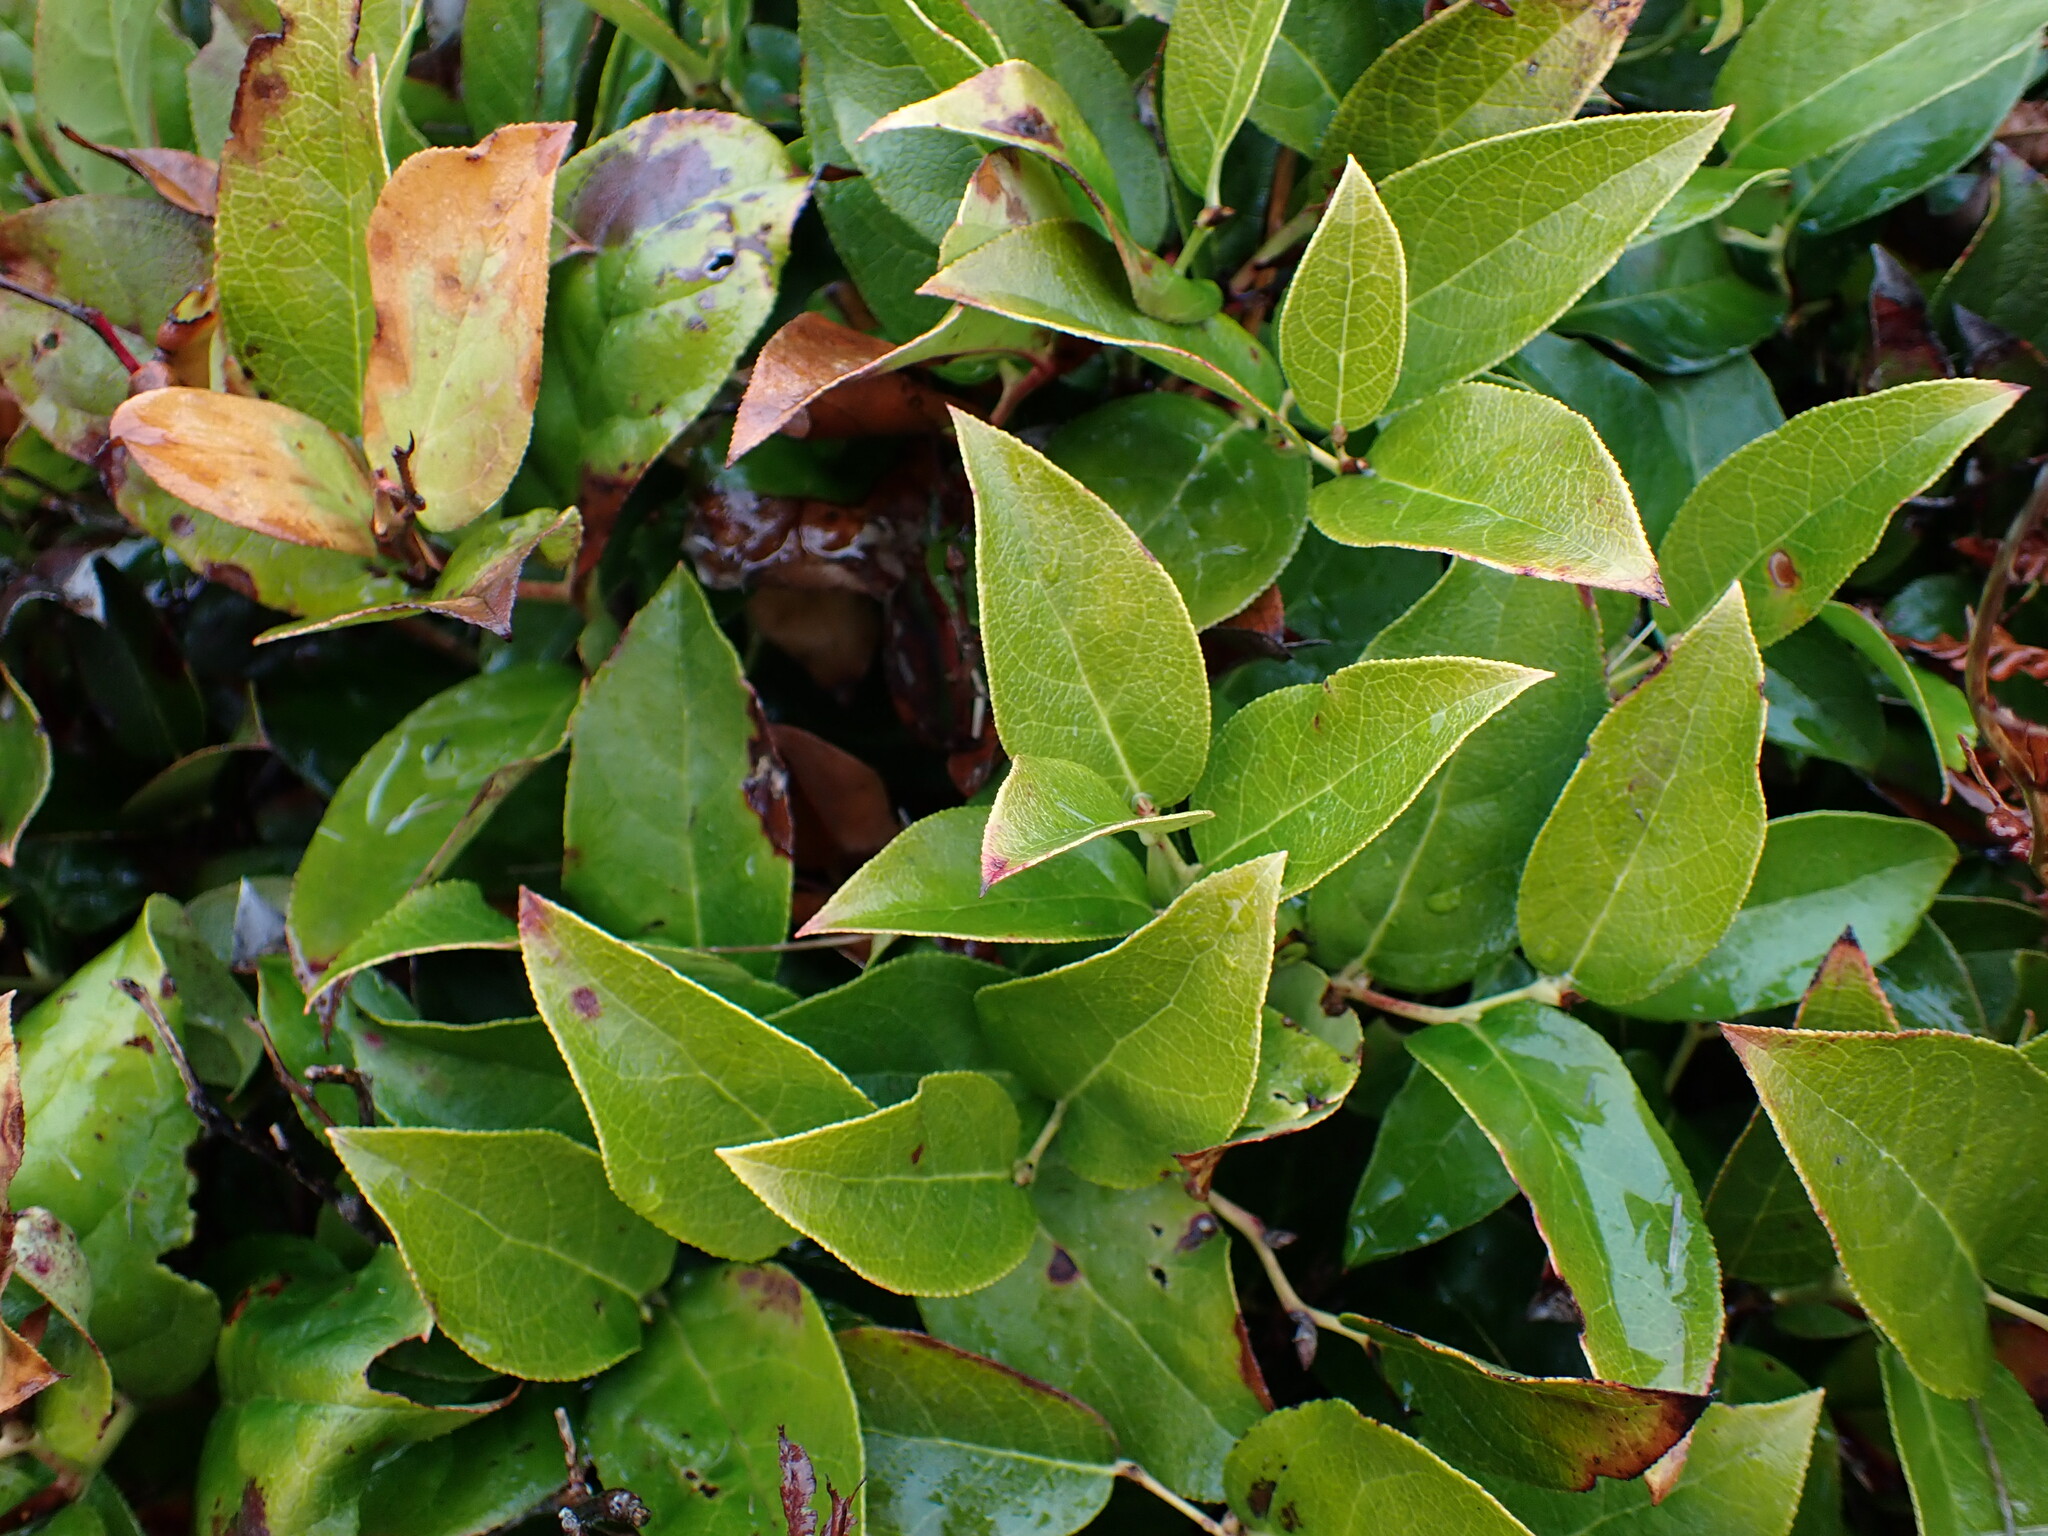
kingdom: Plantae
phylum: Tracheophyta
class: Magnoliopsida
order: Ericales
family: Ericaceae
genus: Gaultheria
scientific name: Gaultheria shallon
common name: Shallon
